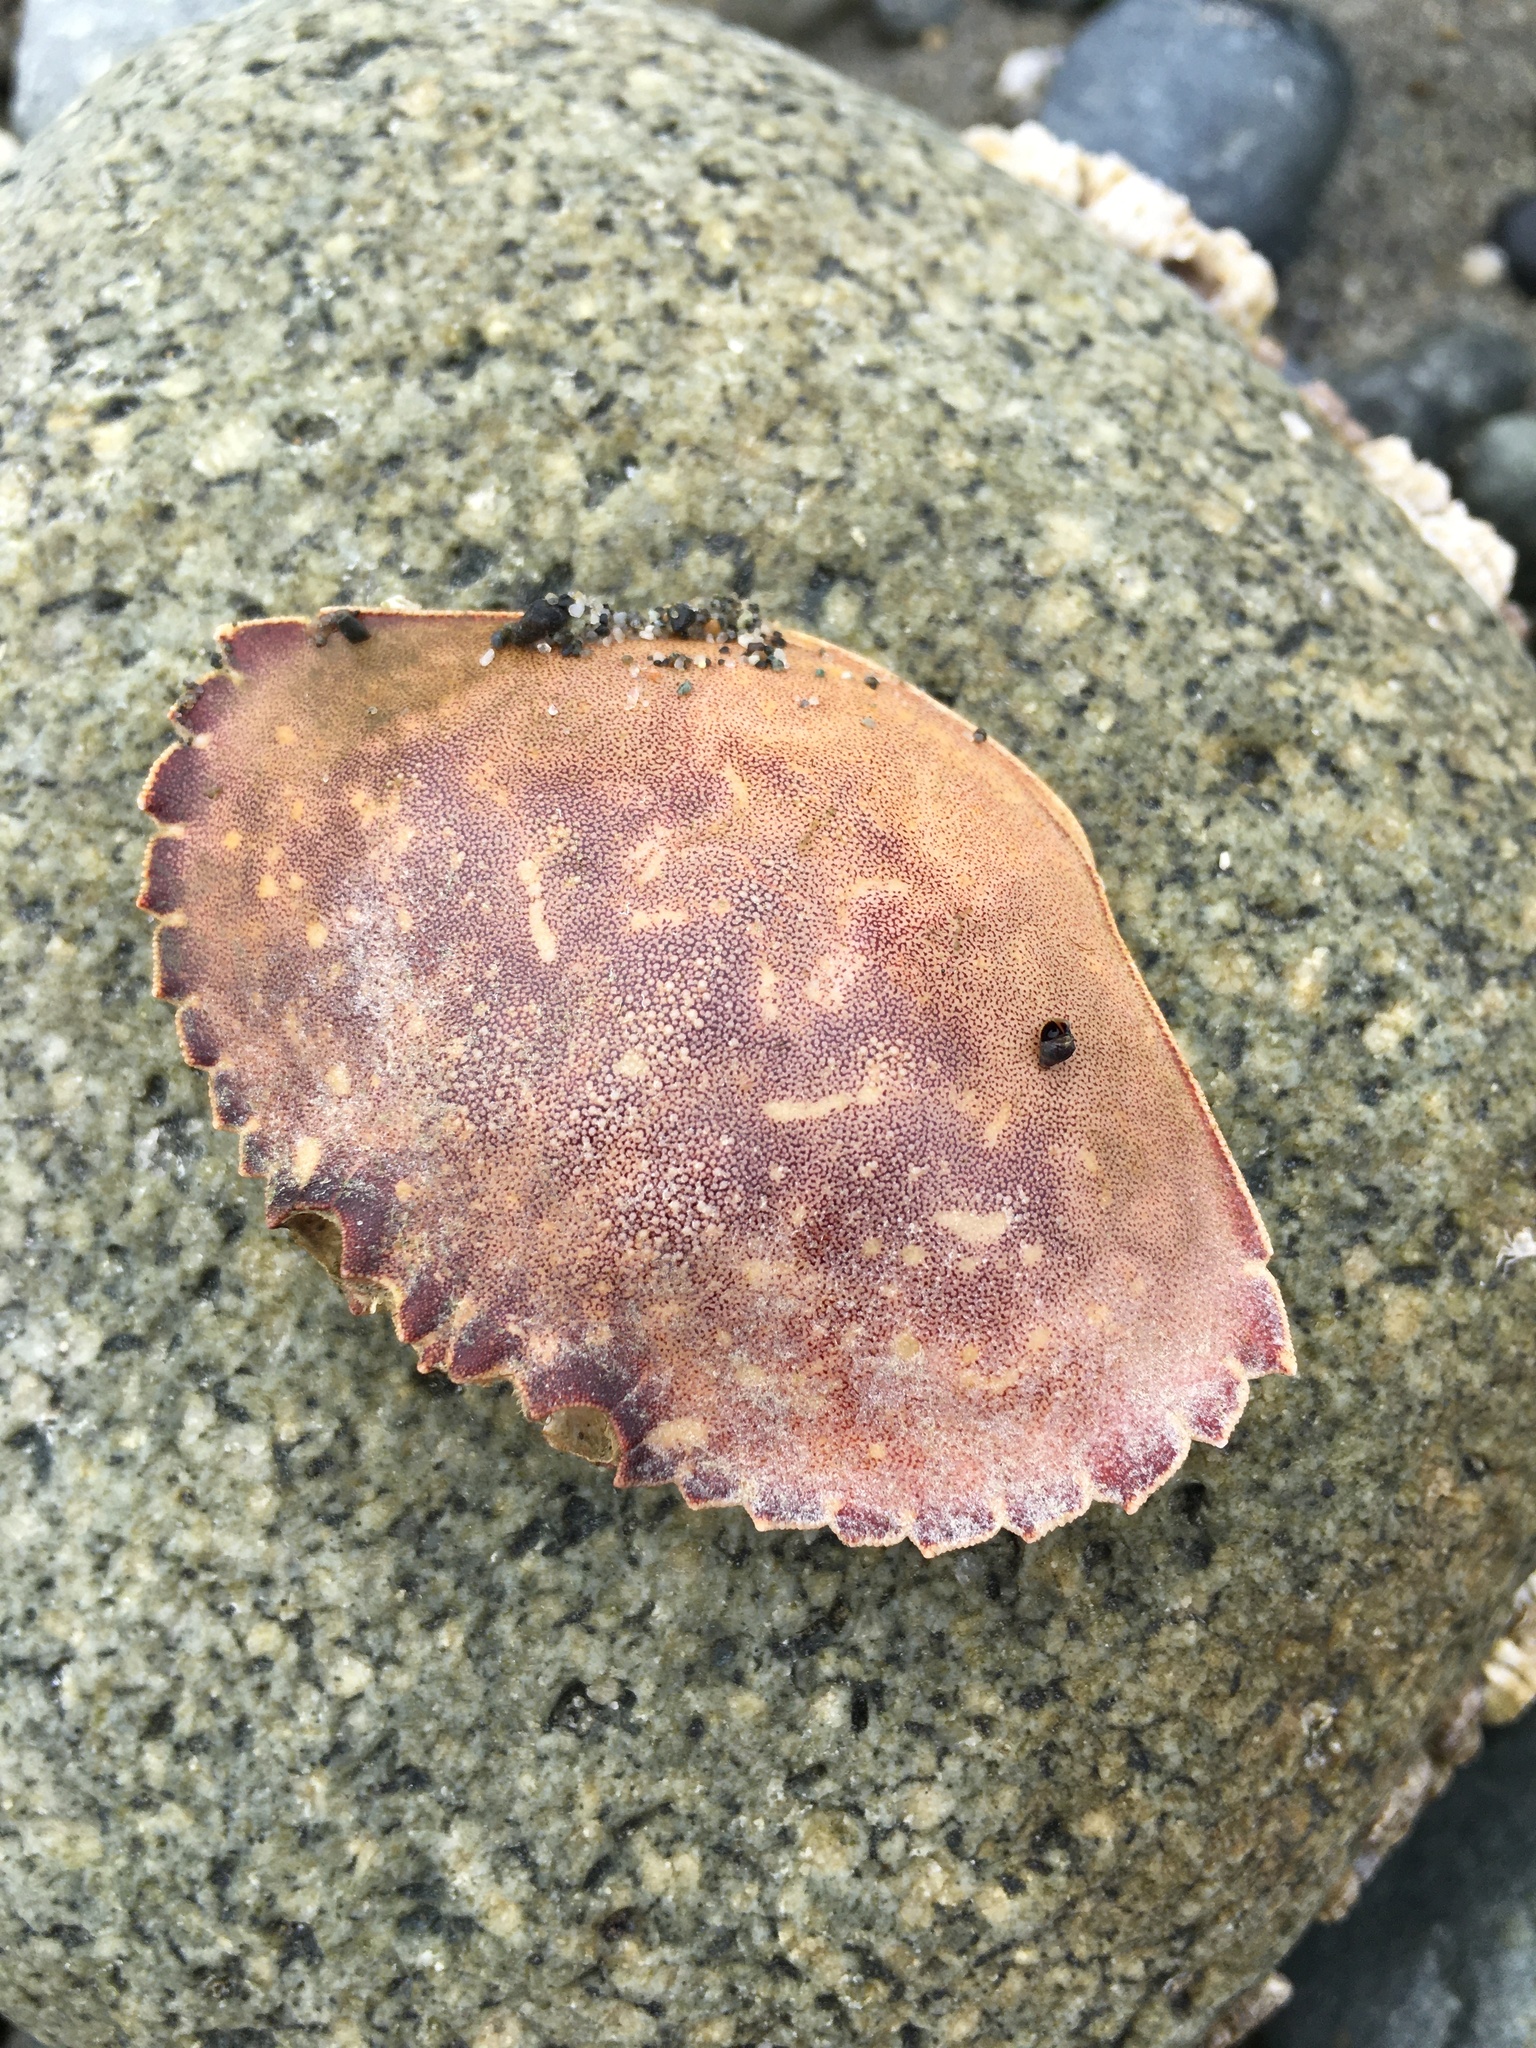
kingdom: Animalia
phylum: Arthropoda
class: Malacostraca
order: Decapoda
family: Cancridae
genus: Metacarcinus
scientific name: Metacarcinus gracilis
